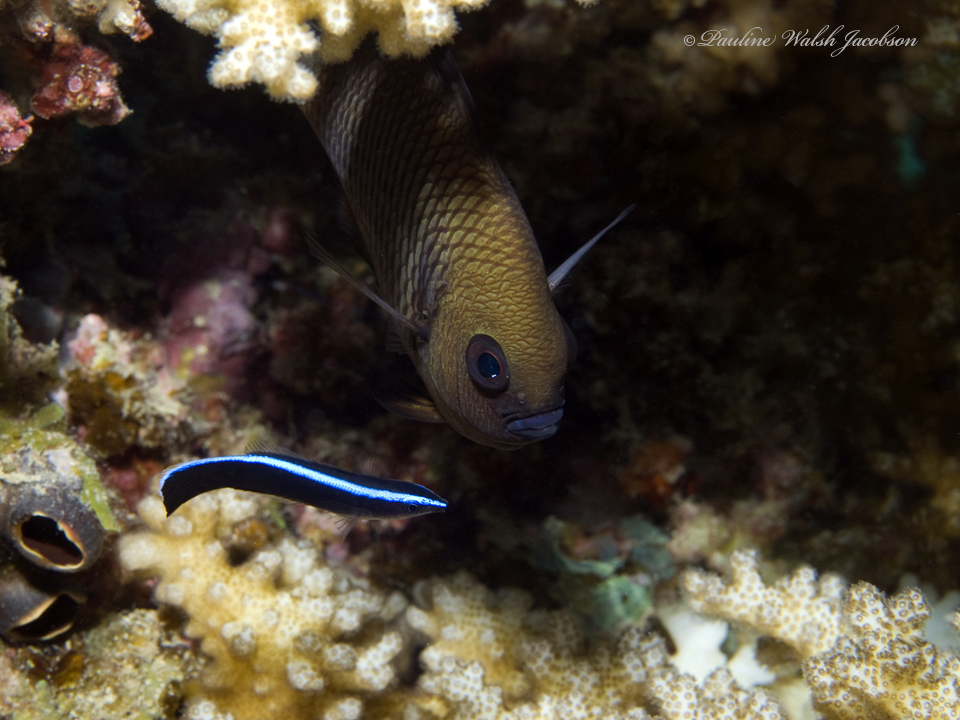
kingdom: Animalia
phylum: Chordata
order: Perciformes
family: Labridae
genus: Labroides
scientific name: Labroides dimidiatus
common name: Blue diesel wrasse
